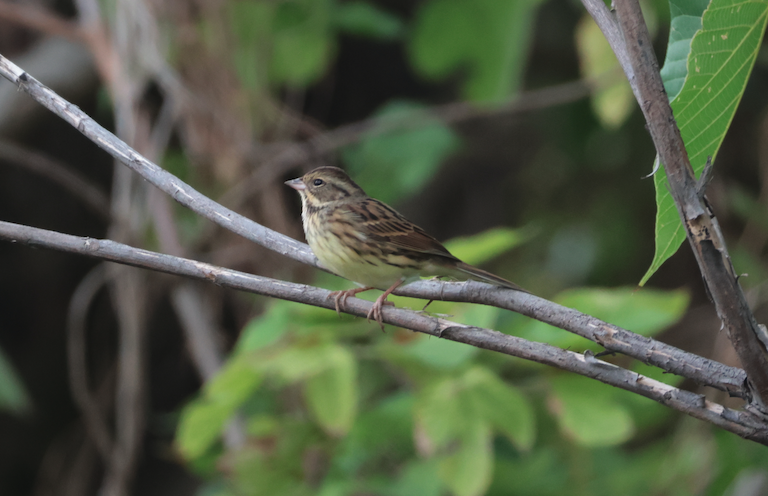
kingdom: Animalia
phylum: Chordata
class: Aves
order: Passeriformes
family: Emberizidae
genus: Emberiza
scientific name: Emberiza spodocephala
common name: Black-faced bunting
